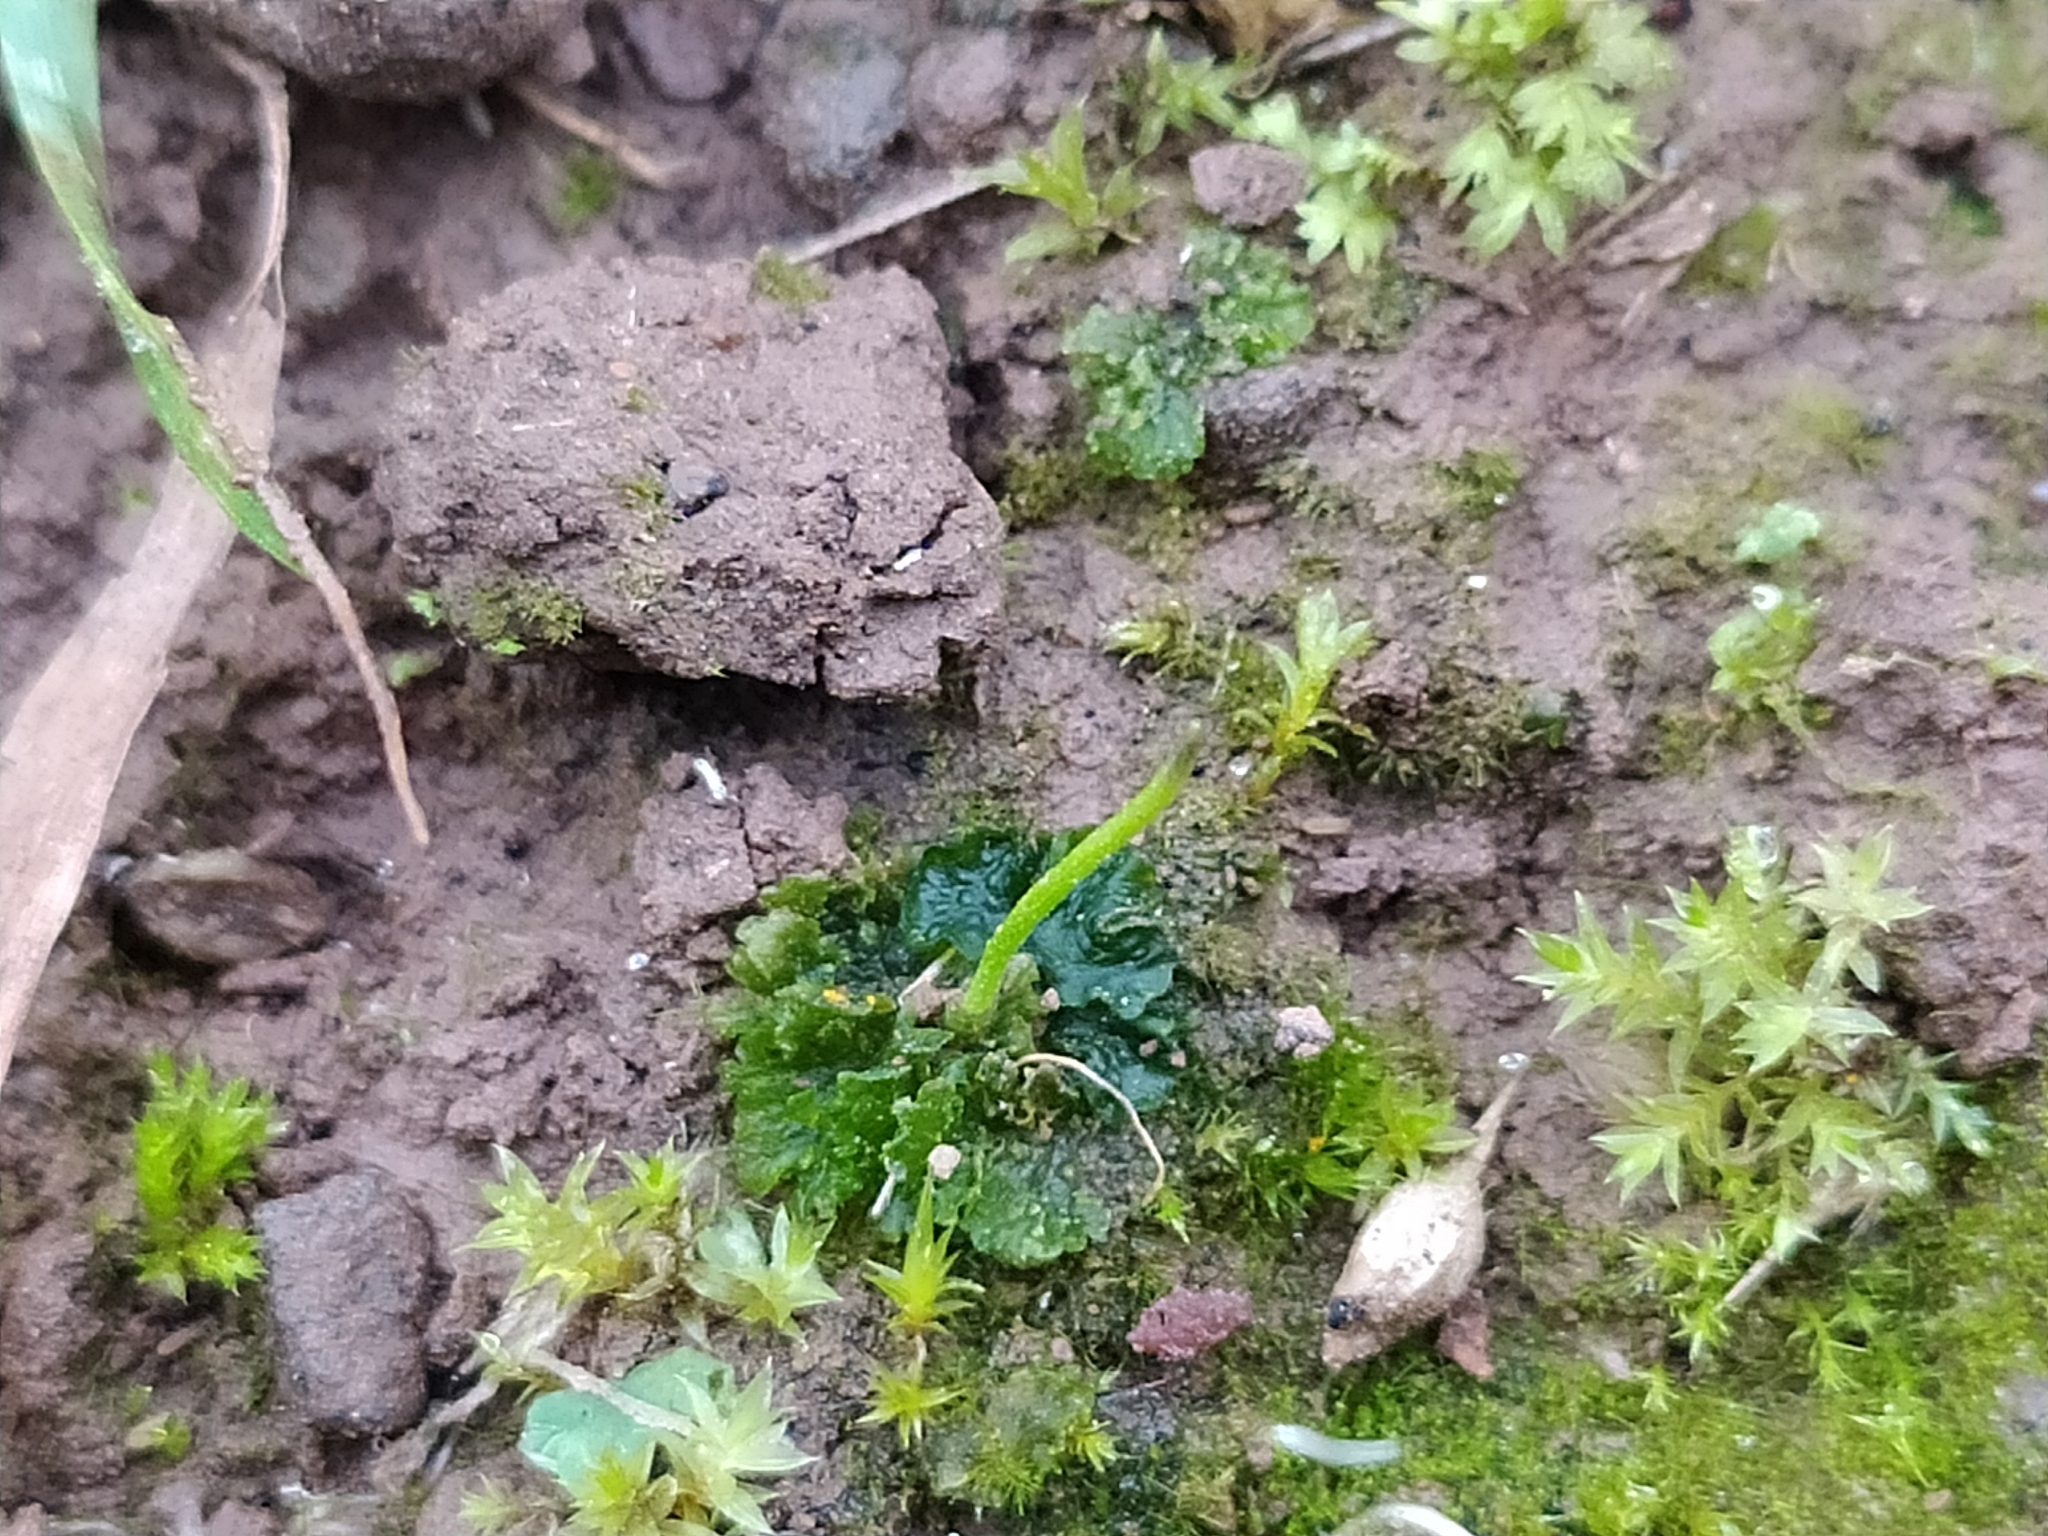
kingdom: Plantae
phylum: Anthocerotophyta
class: Anthocerotopsida
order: Anthocerotales
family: Anthocerotaceae
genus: Anthoceros
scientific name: Anthoceros agrestis
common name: Field hornwort
